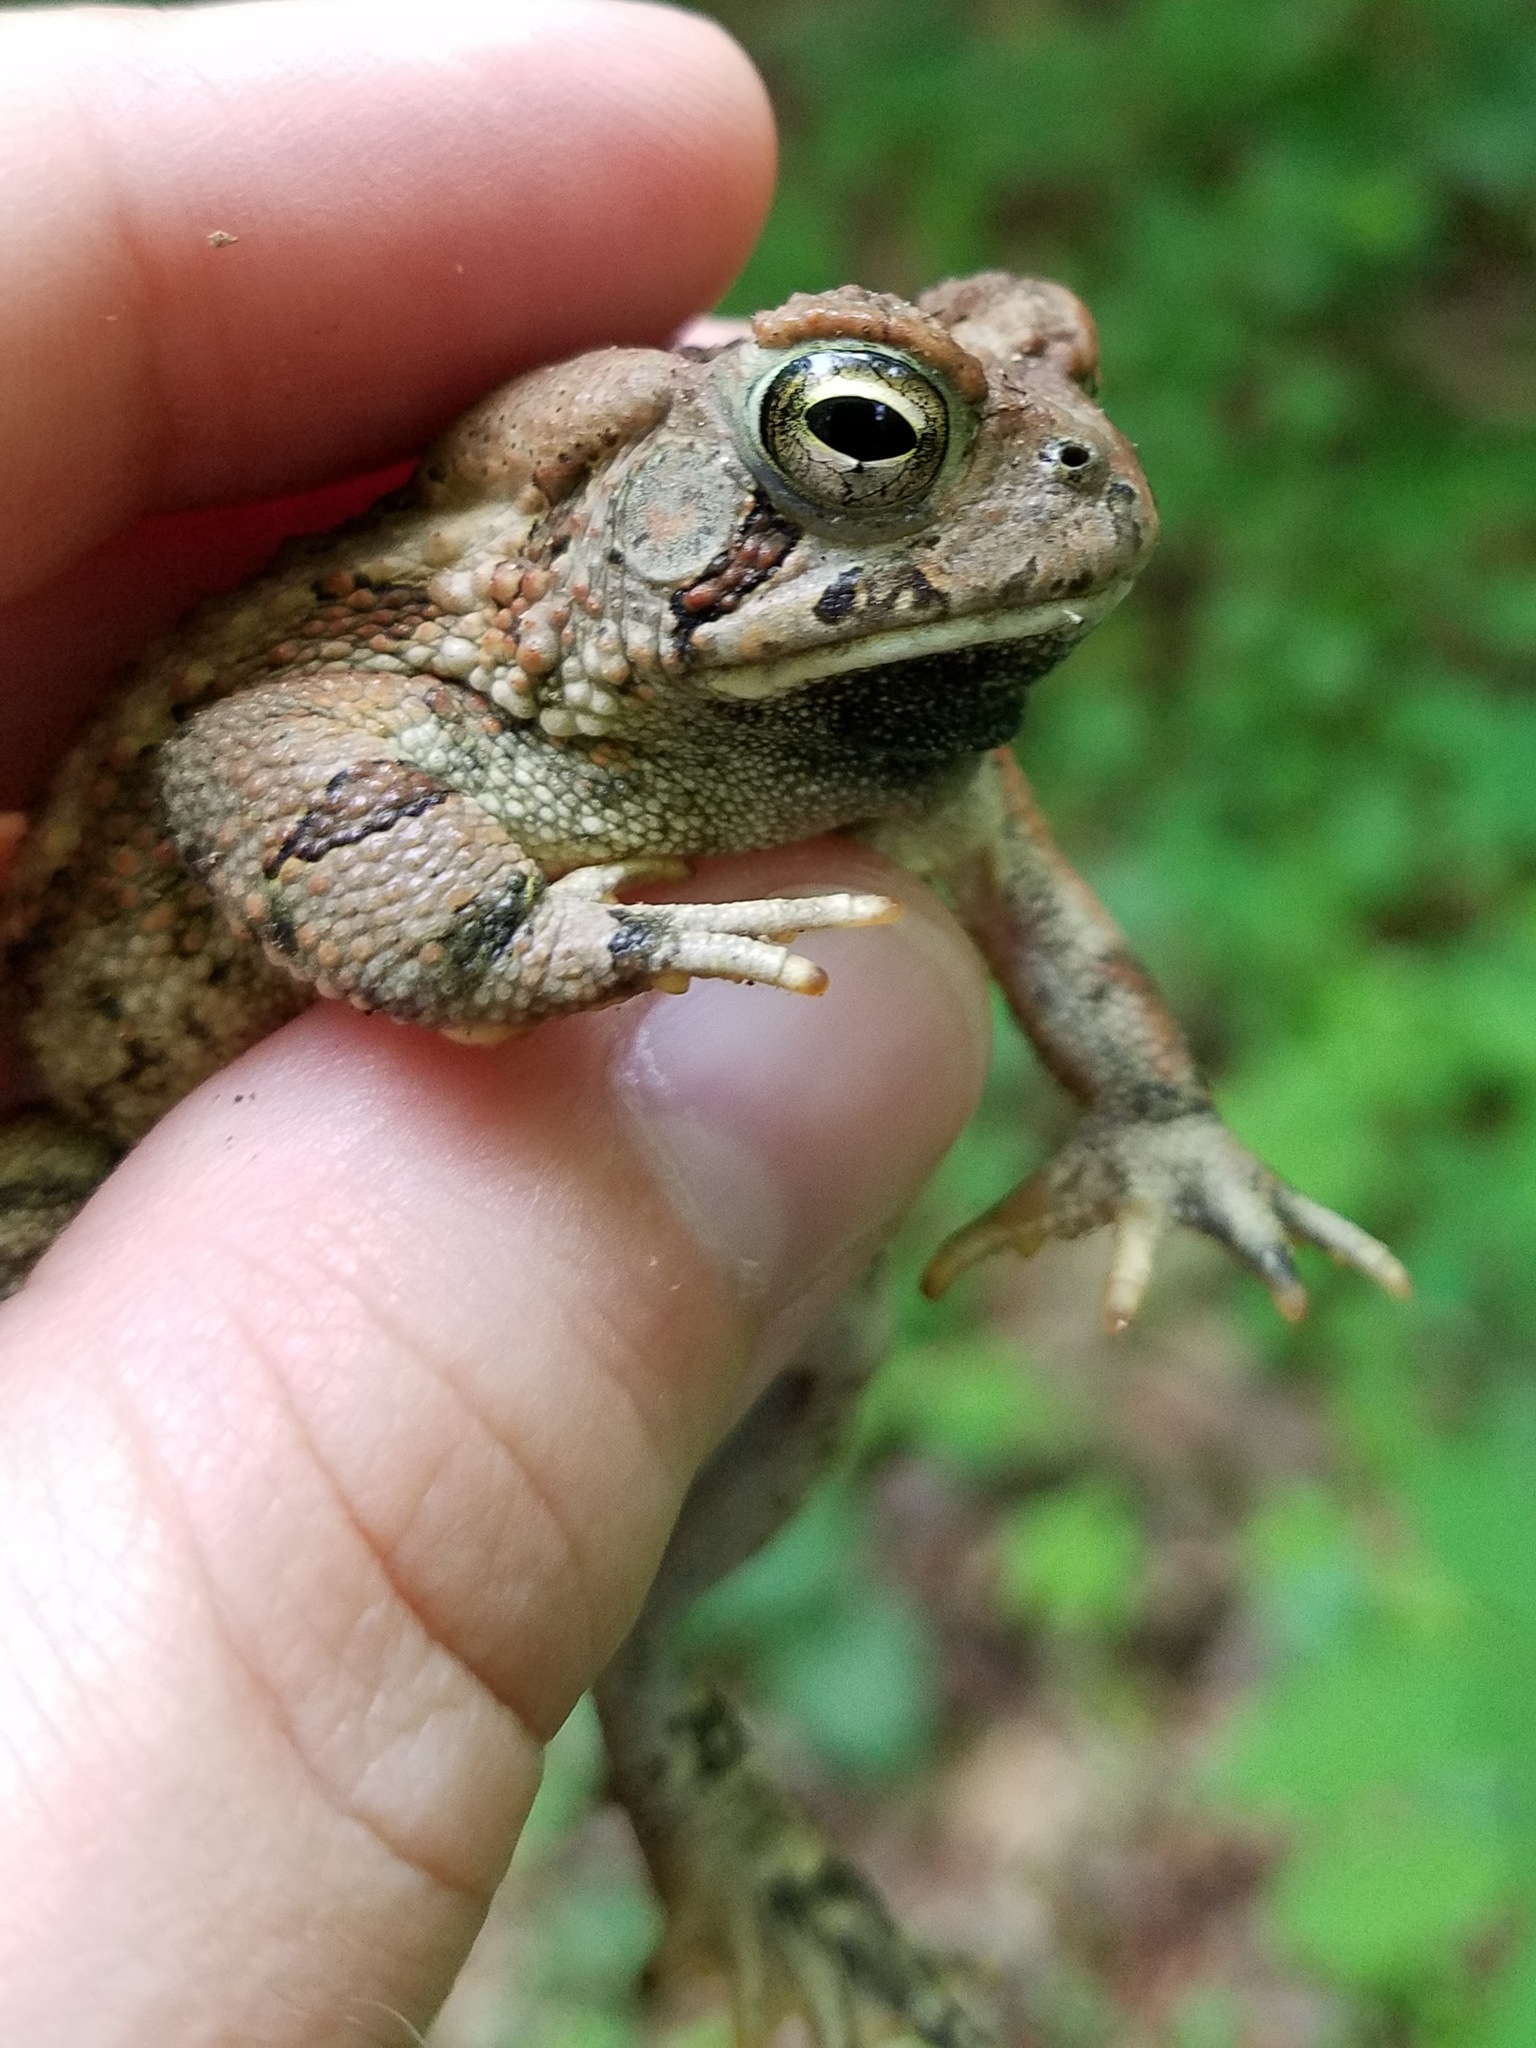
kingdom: Animalia
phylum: Chordata
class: Amphibia
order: Anura
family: Bufonidae
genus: Anaxyrus
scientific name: Anaxyrus fowleri
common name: Fowler's toad
